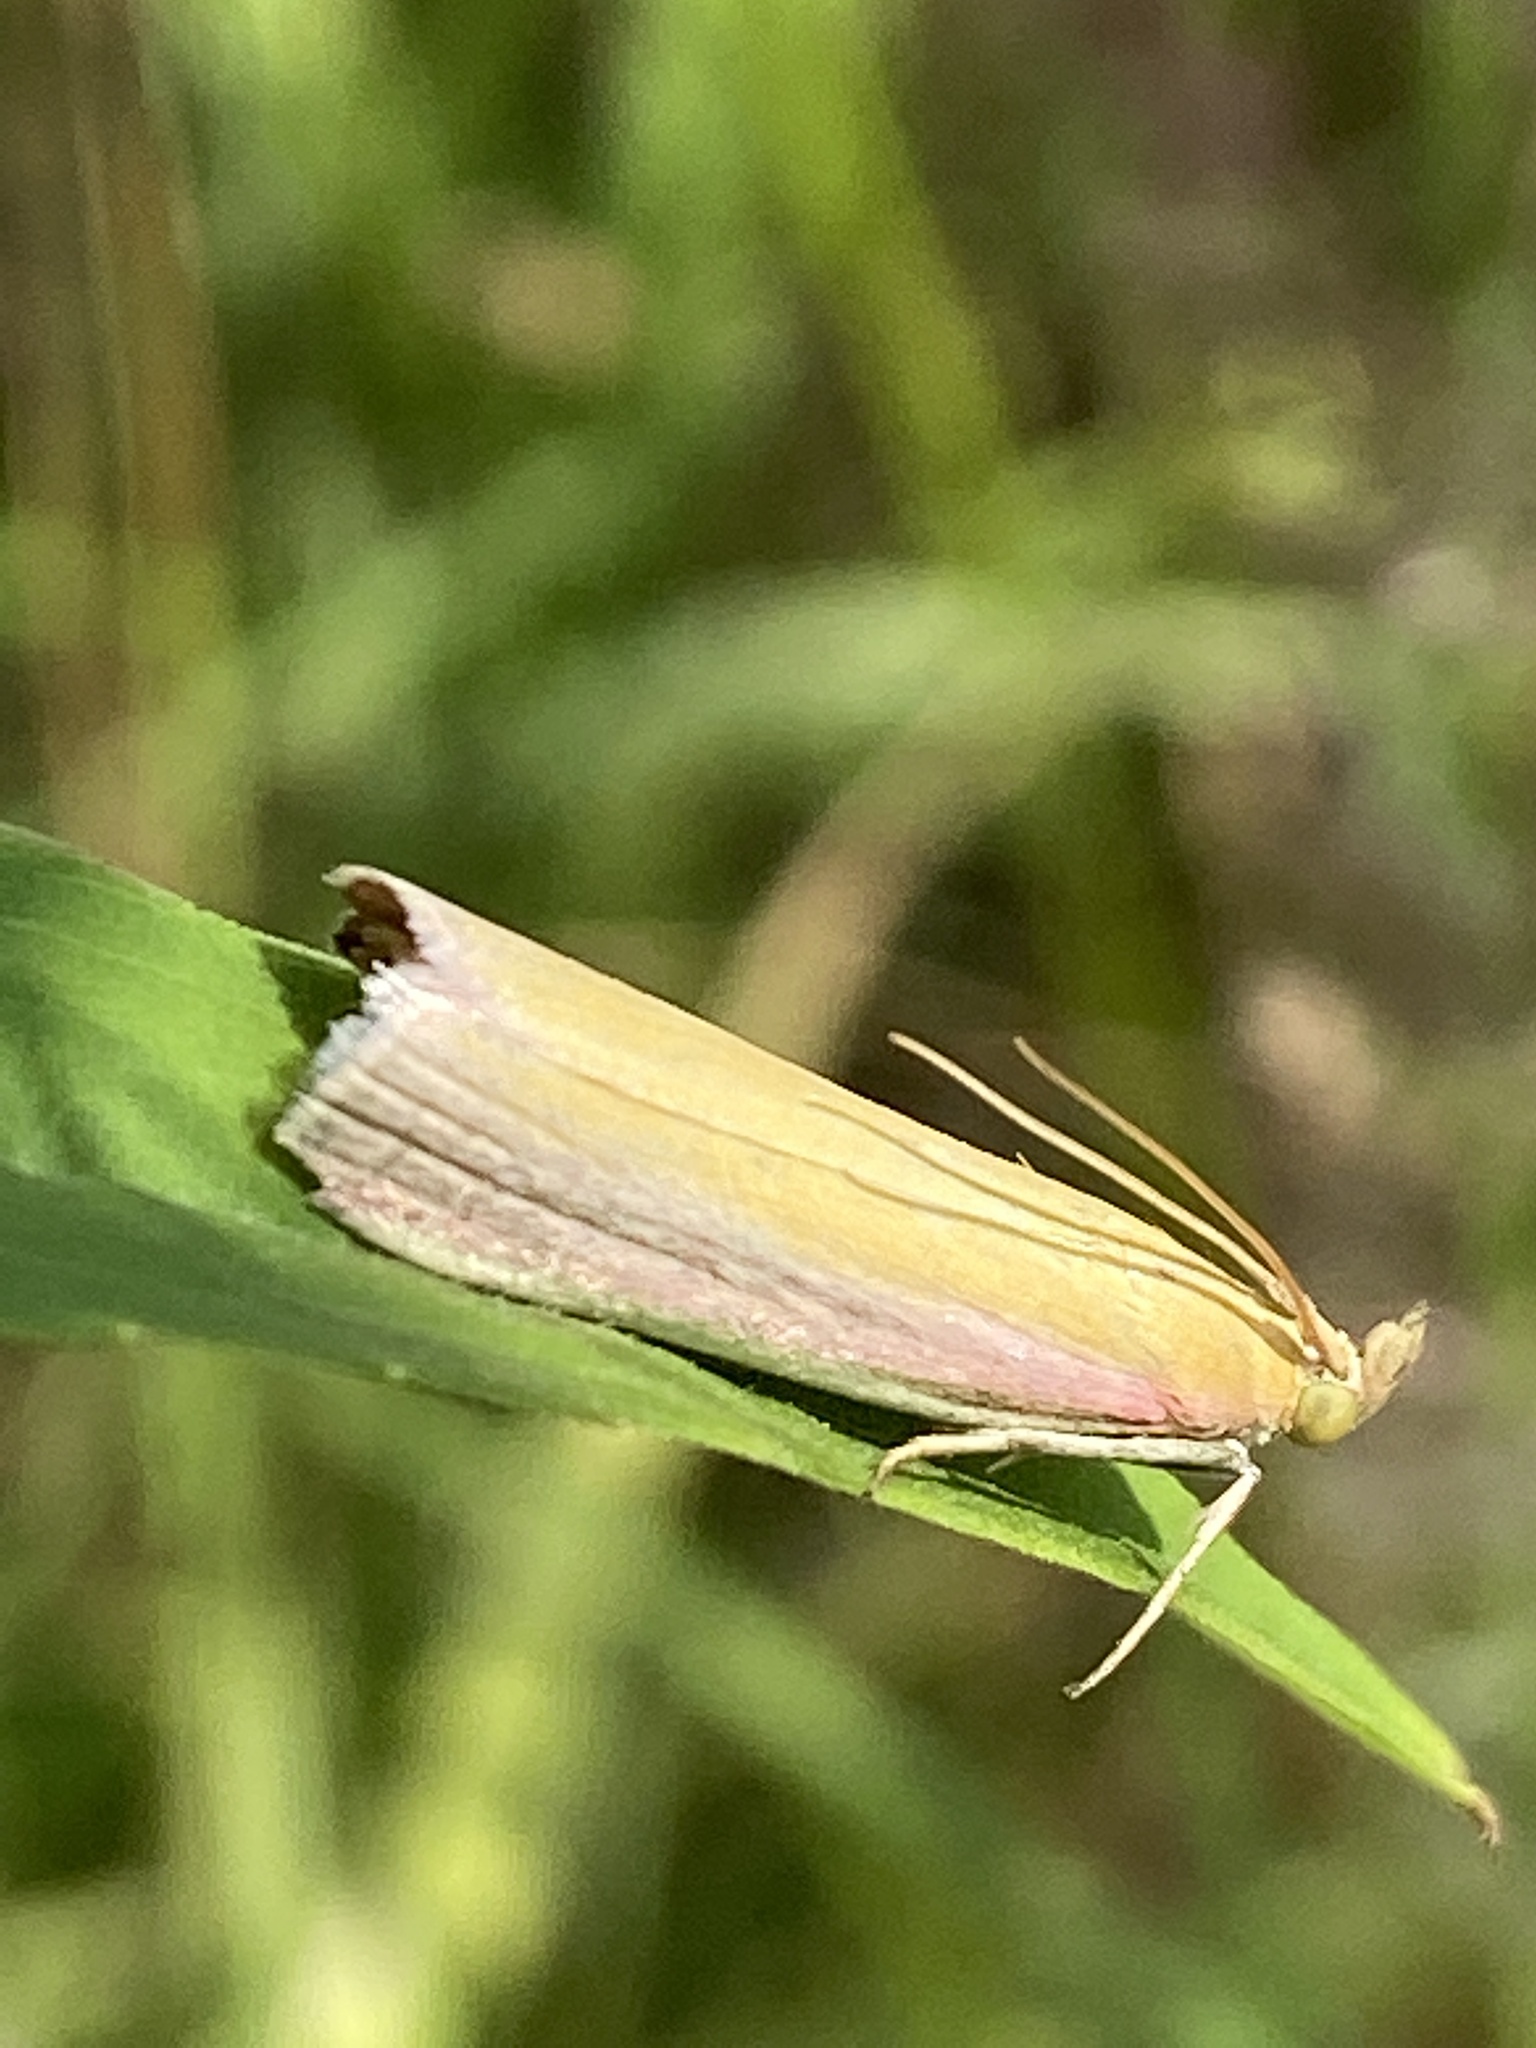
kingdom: Animalia
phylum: Arthropoda
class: Insecta
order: Lepidoptera
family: Pyralidae
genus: Oncocera
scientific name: Oncocera semirubella
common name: Rosy-striped knot-horn
